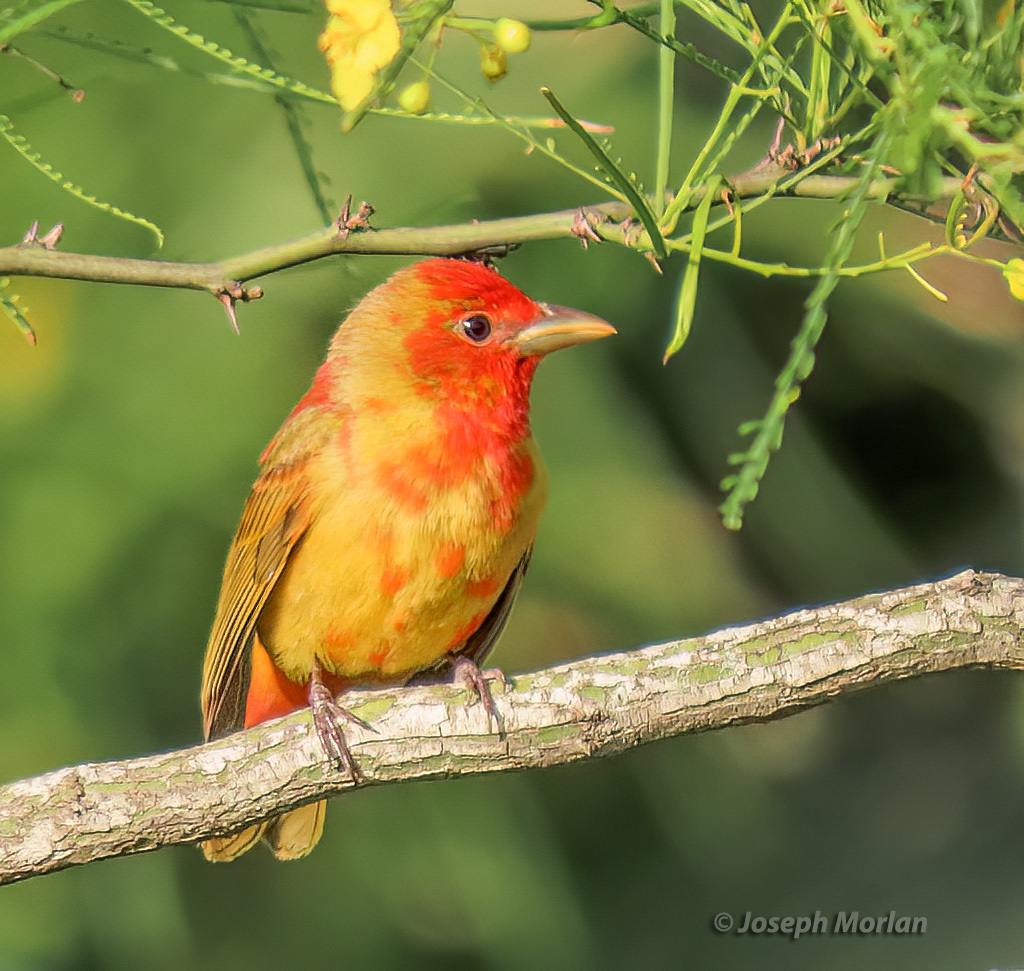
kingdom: Animalia
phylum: Chordata
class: Aves
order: Passeriformes
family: Cardinalidae
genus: Piranga
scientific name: Piranga rubra
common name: Summer tanager
